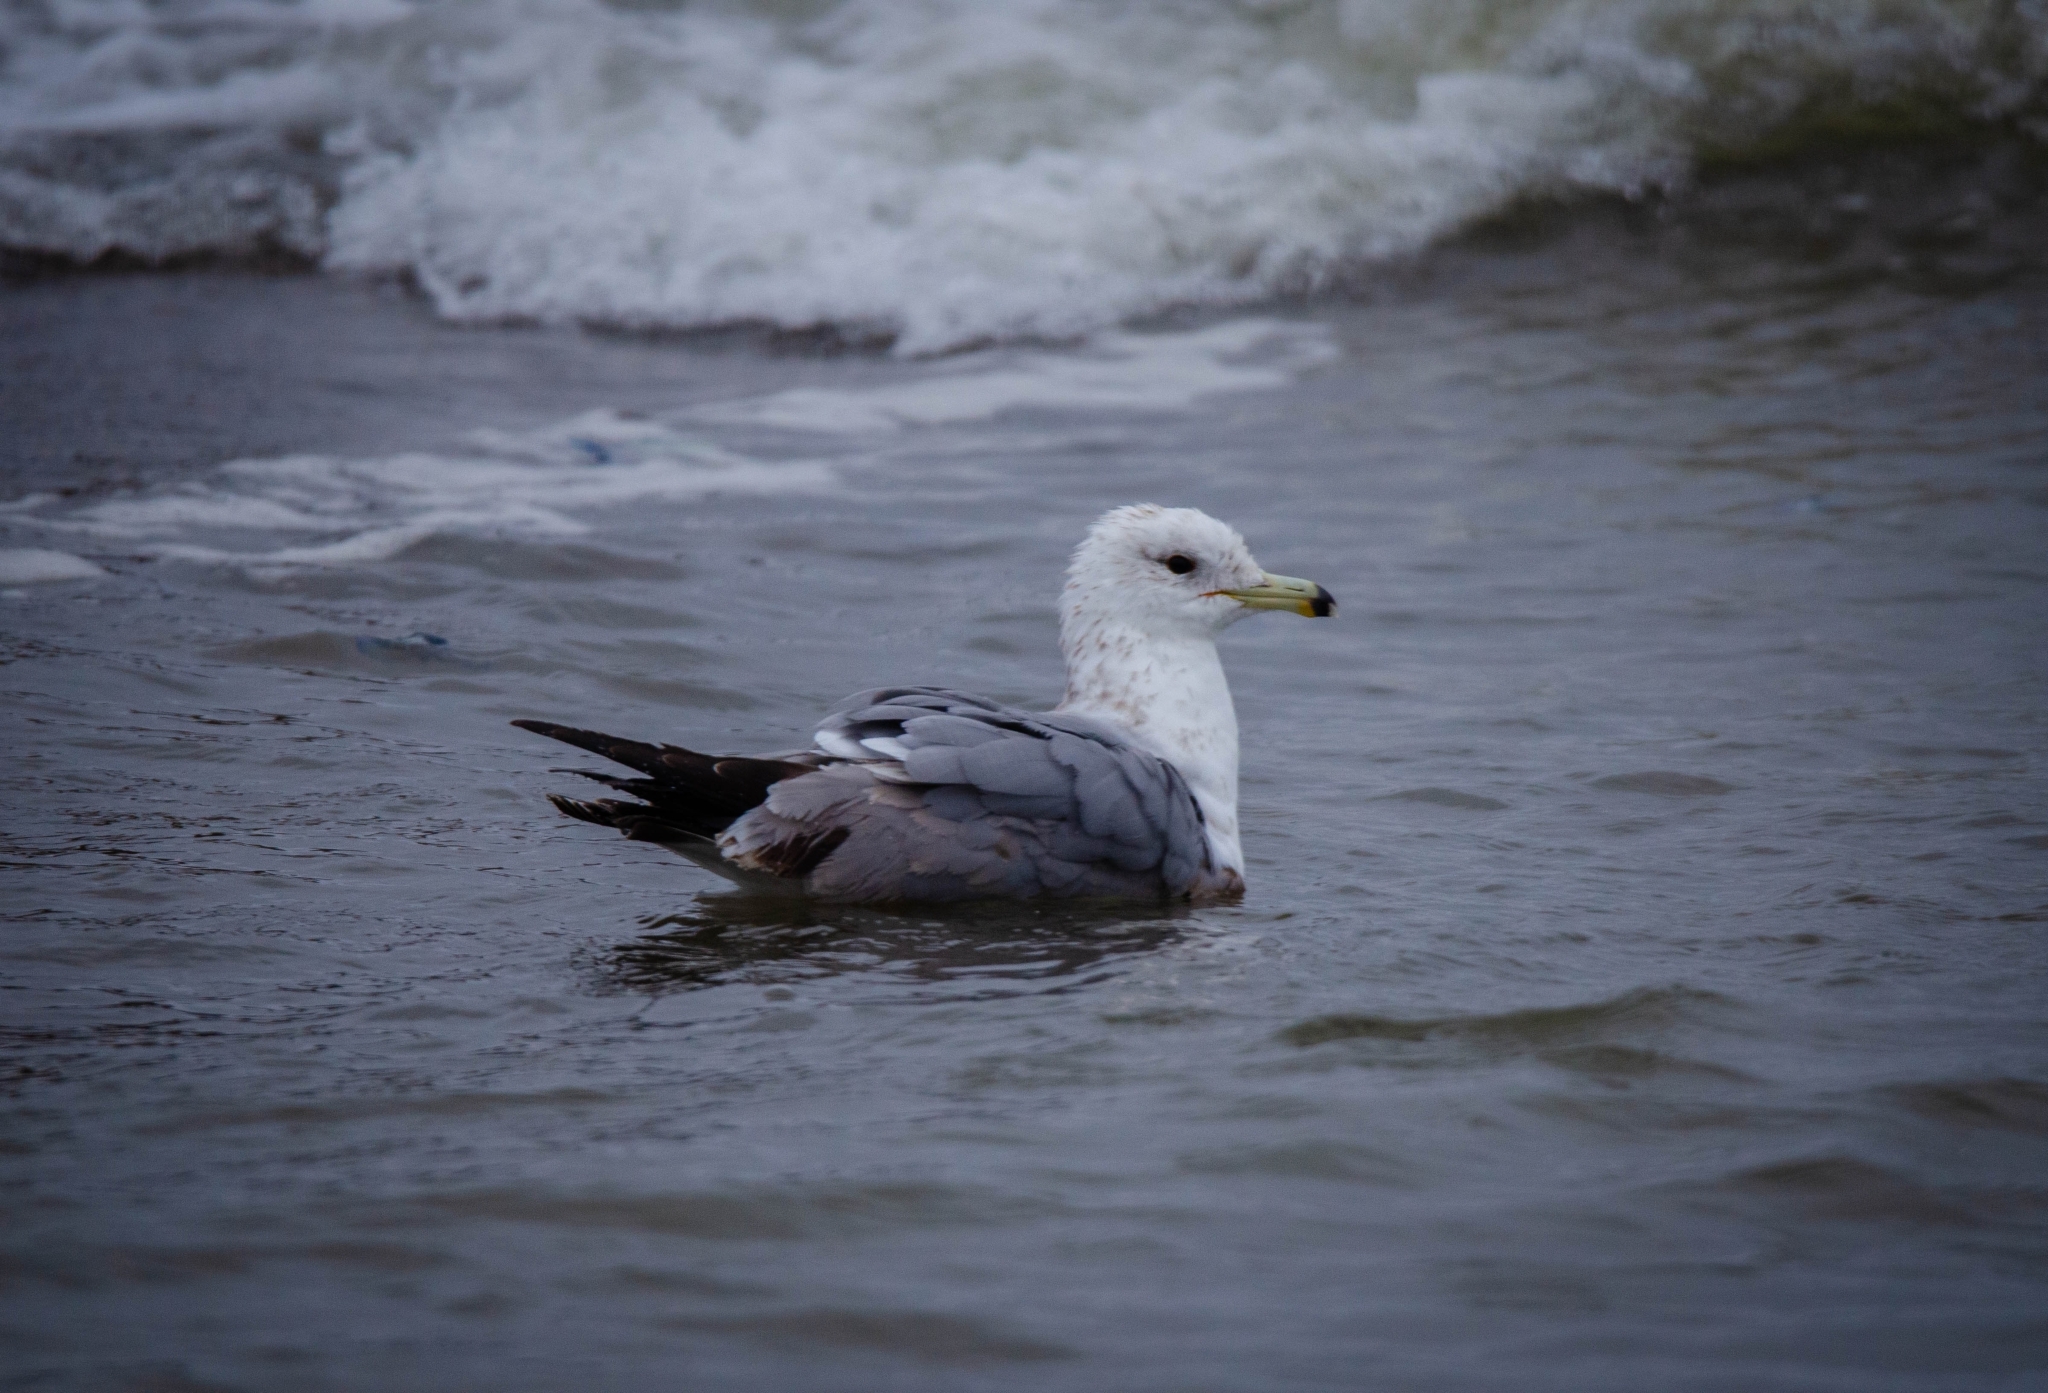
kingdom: Animalia
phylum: Chordata
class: Aves
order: Charadriiformes
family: Laridae
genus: Larus
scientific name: Larus californicus
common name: California gull
